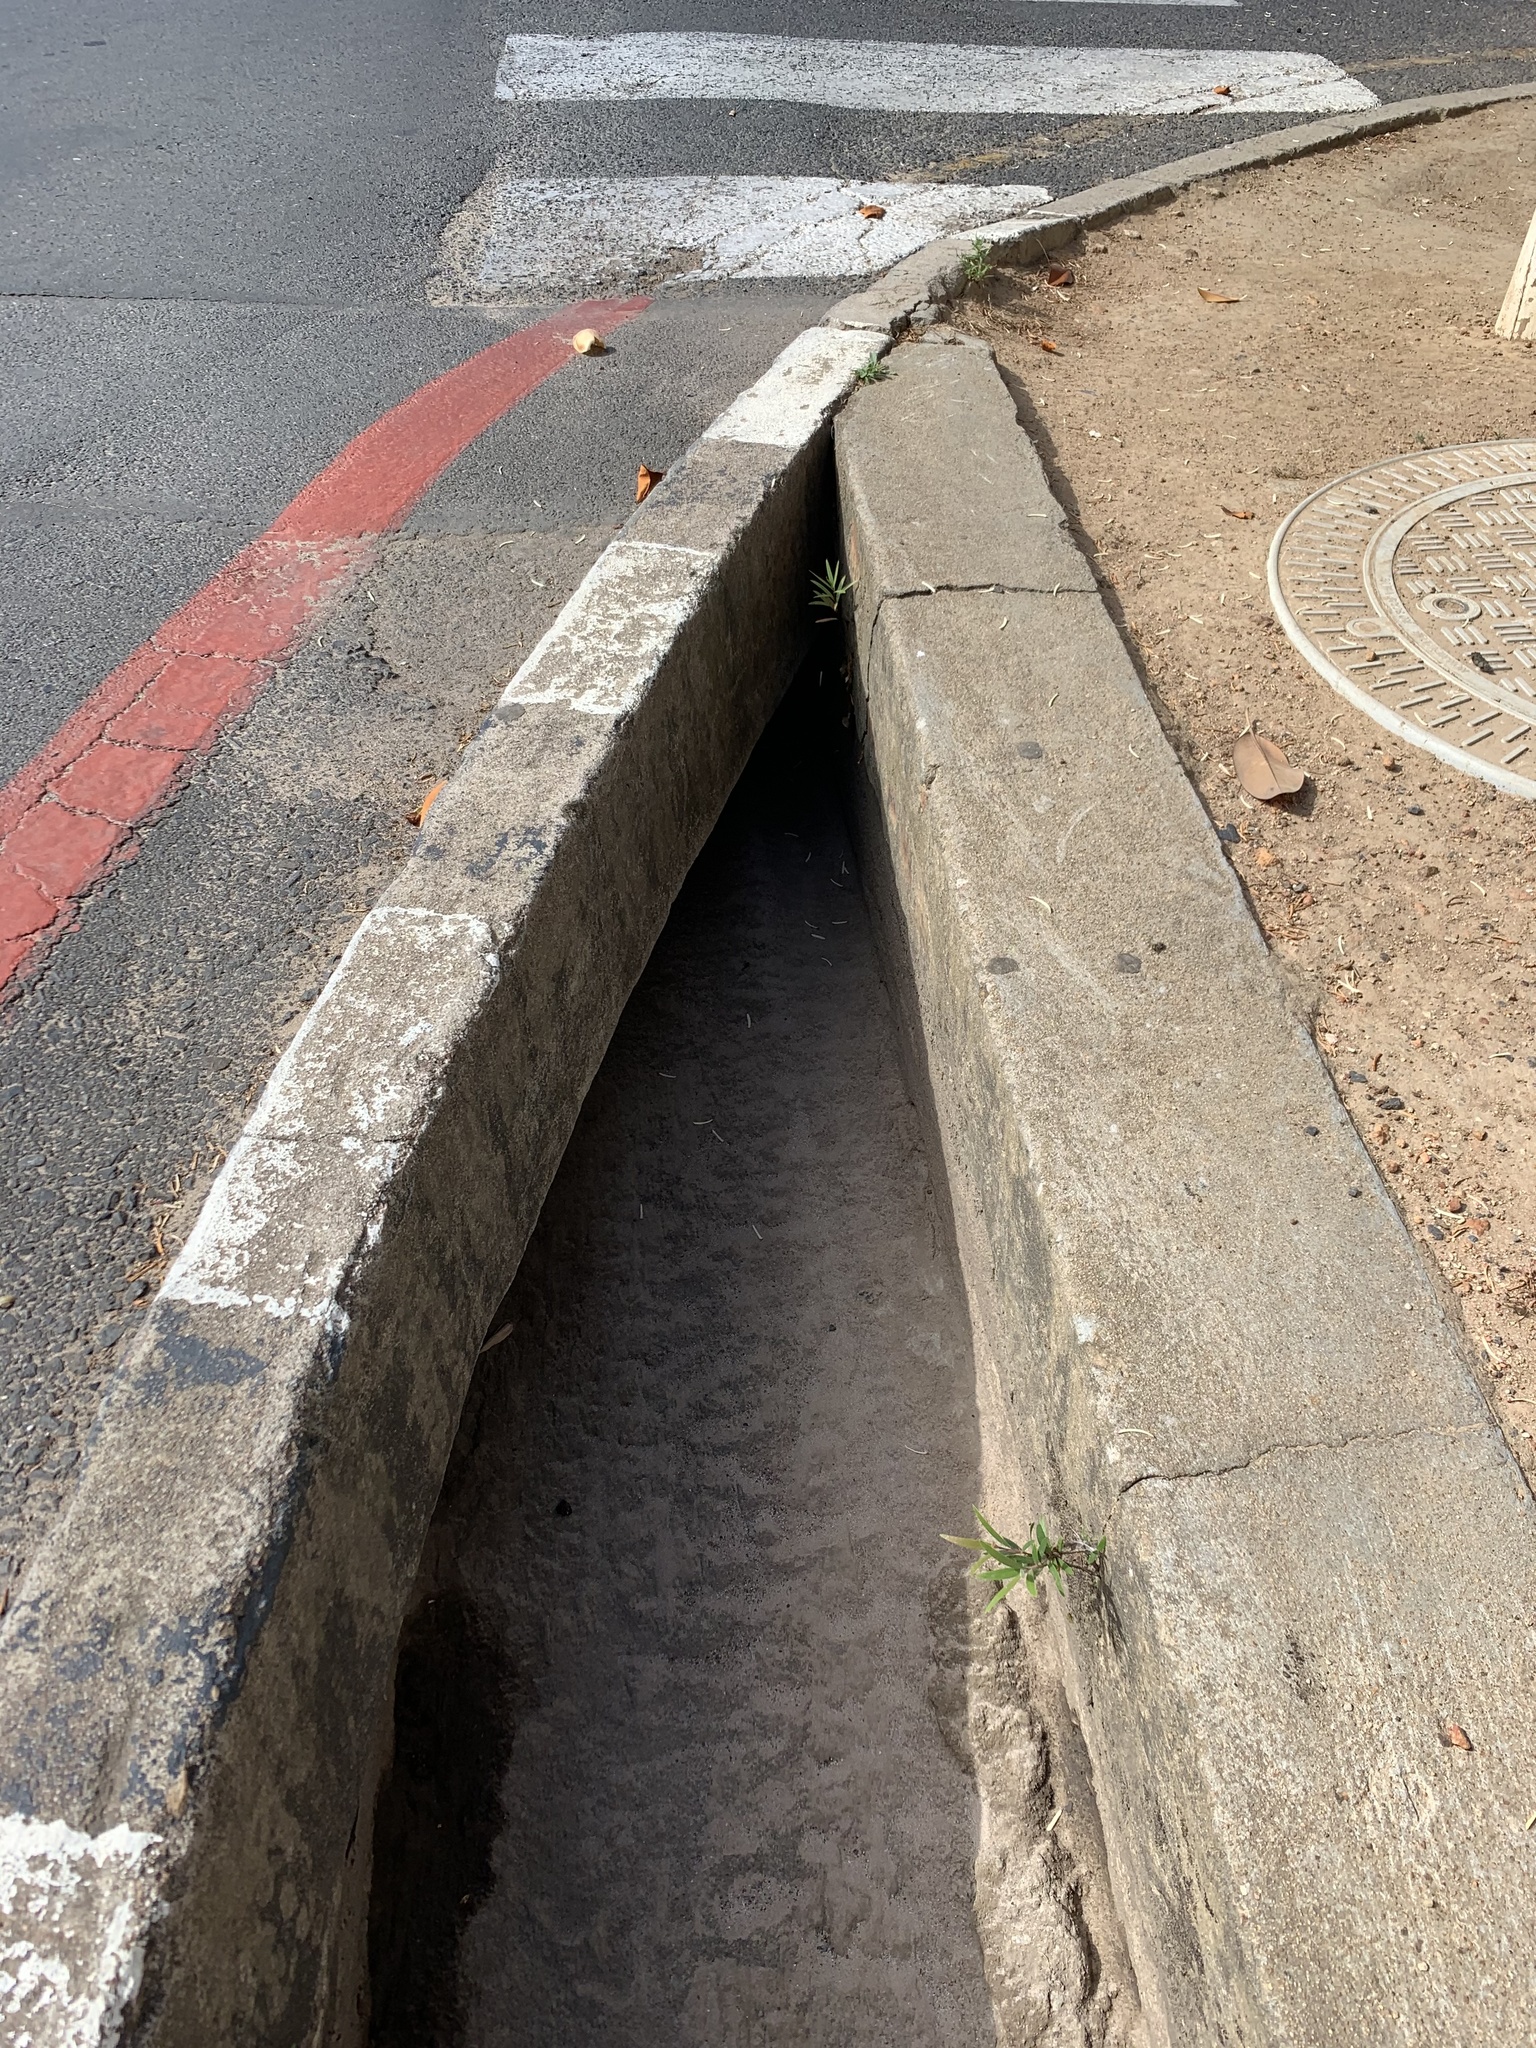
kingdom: Plantae
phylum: Tracheophyta
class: Magnoliopsida
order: Myrtales
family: Myrtaceae
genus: Callistemon
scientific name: Callistemon viminalis
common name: Drooping bottlebrush
